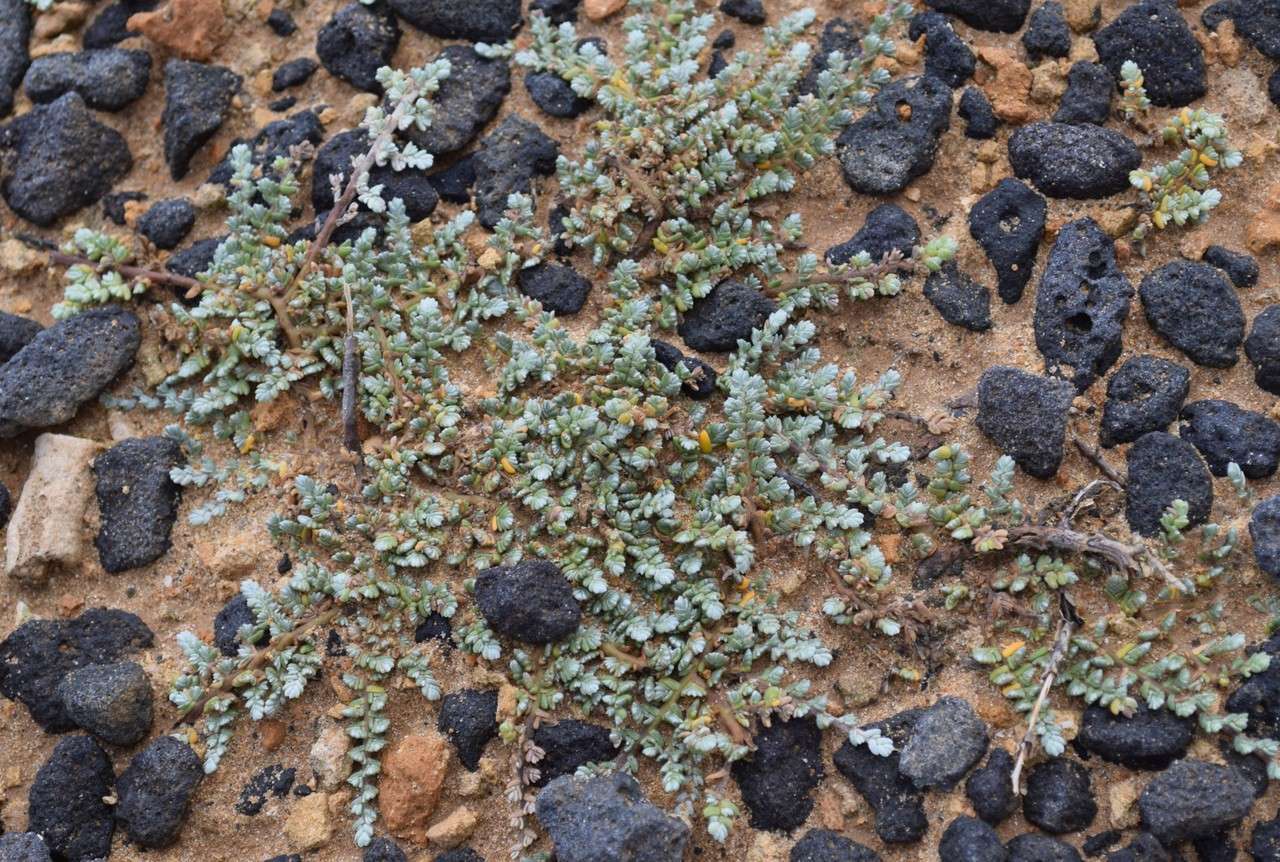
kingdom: Plantae
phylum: Tracheophyta
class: Magnoliopsida
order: Solanales
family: Convolvulaceae
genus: Wilsonia
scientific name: Wilsonia humilis
